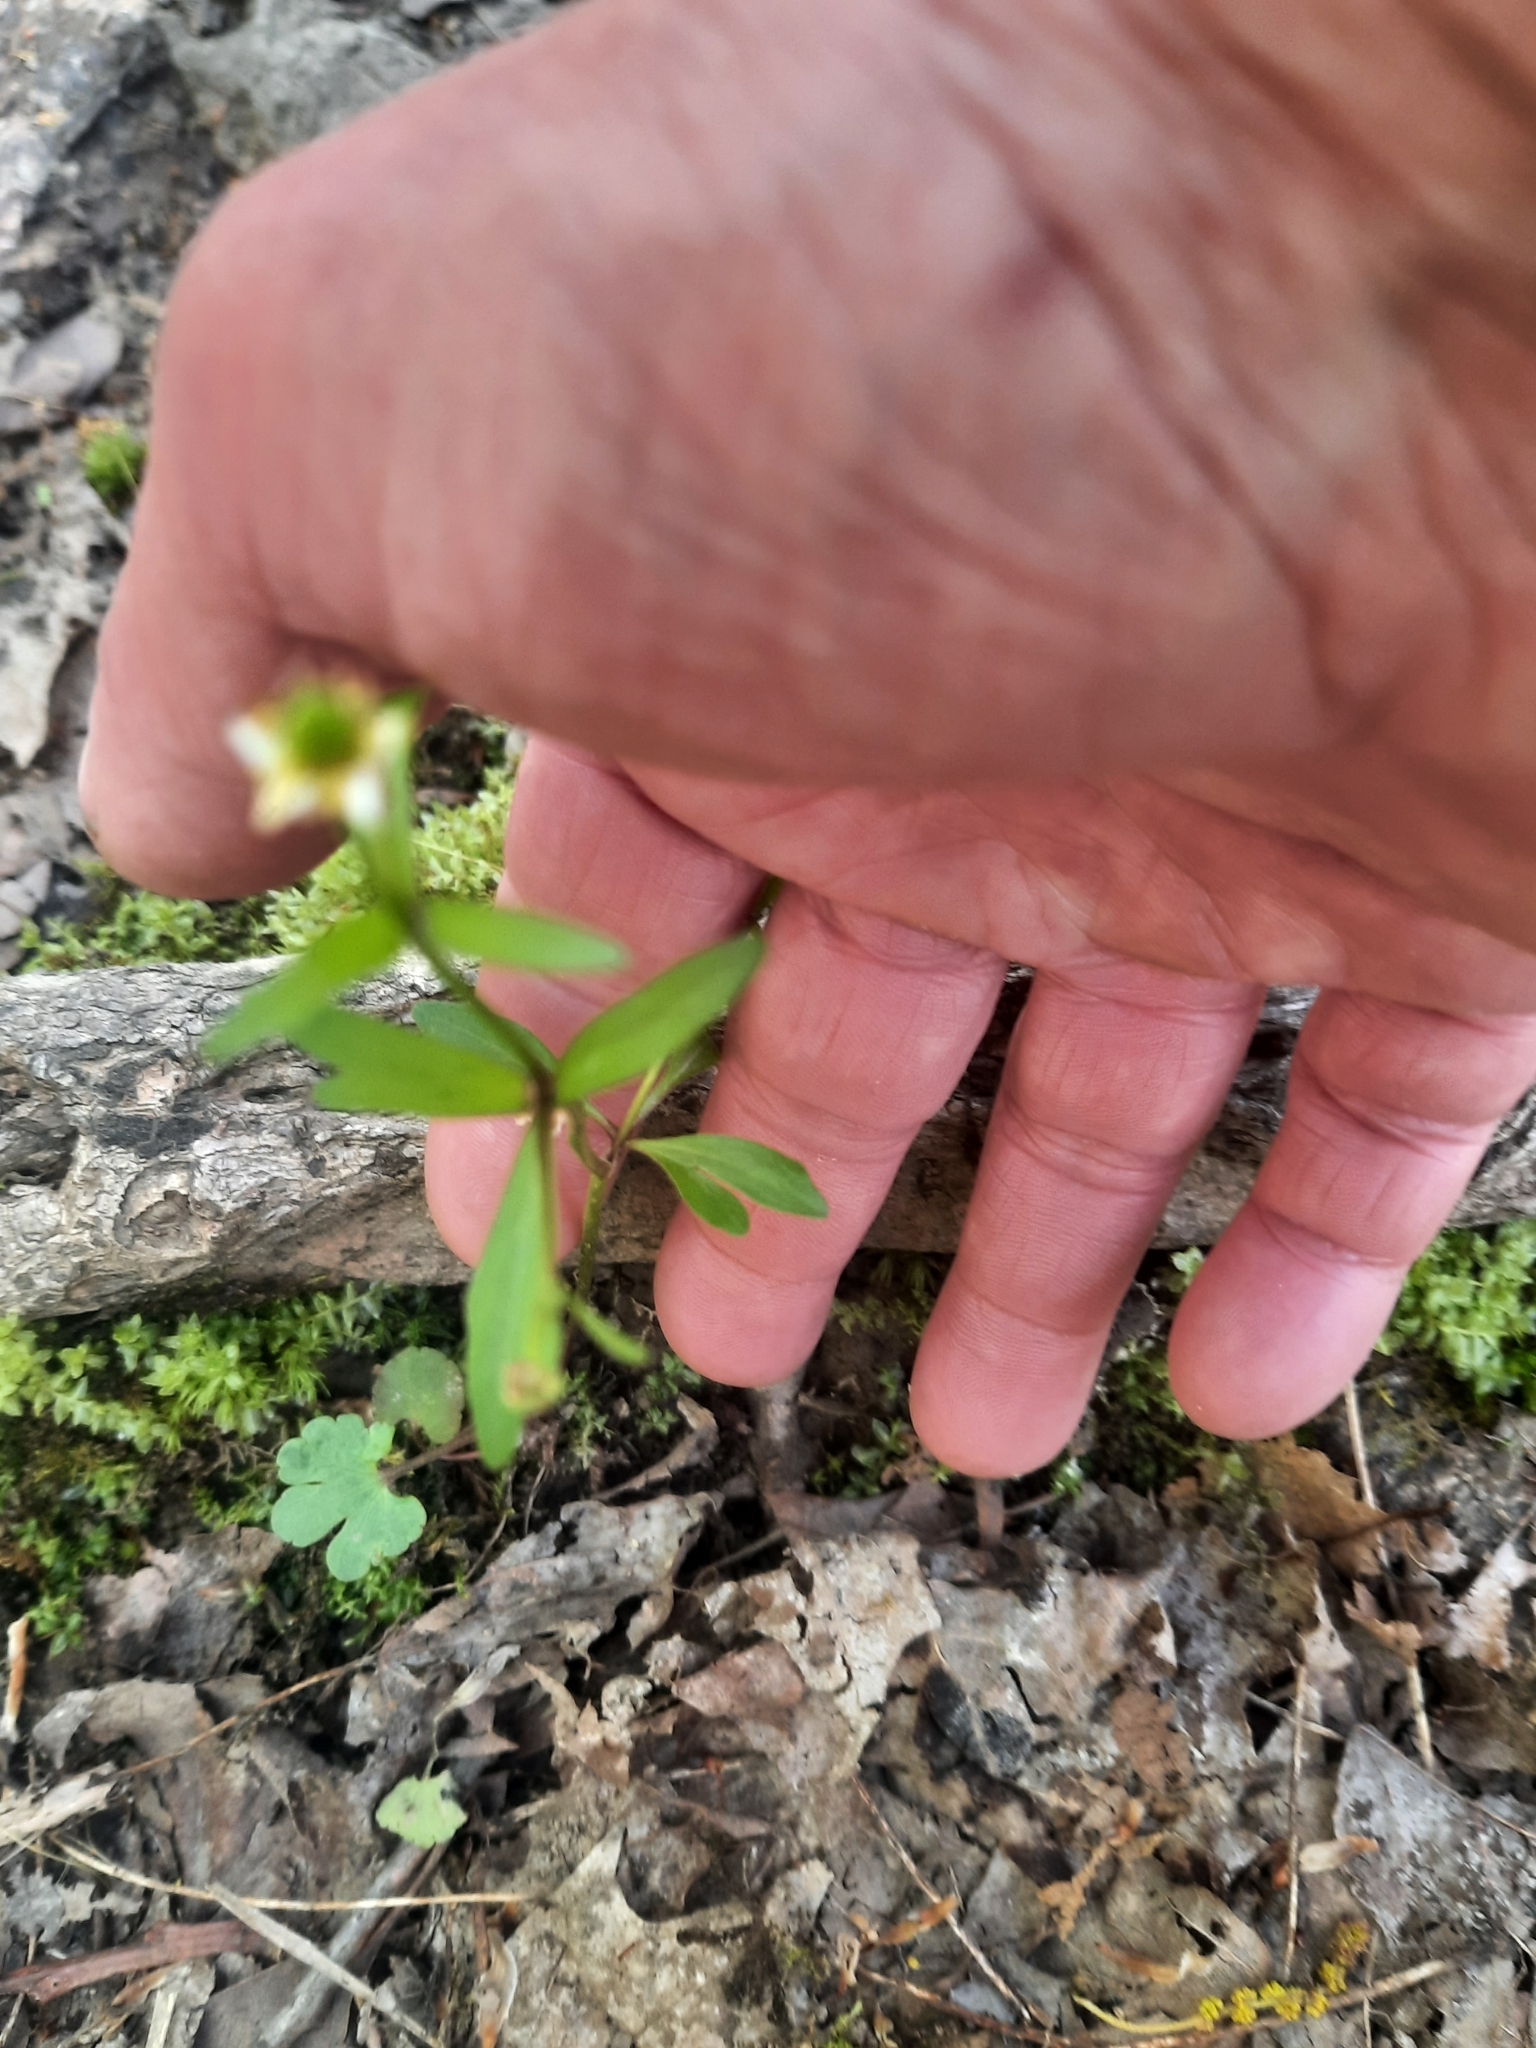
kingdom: Plantae
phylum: Tracheophyta
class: Magnoliopsida
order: Ranunculales
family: Ranunculaceae
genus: Ranunculus
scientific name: Ranunculus abortivus
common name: Early wood buttercup
